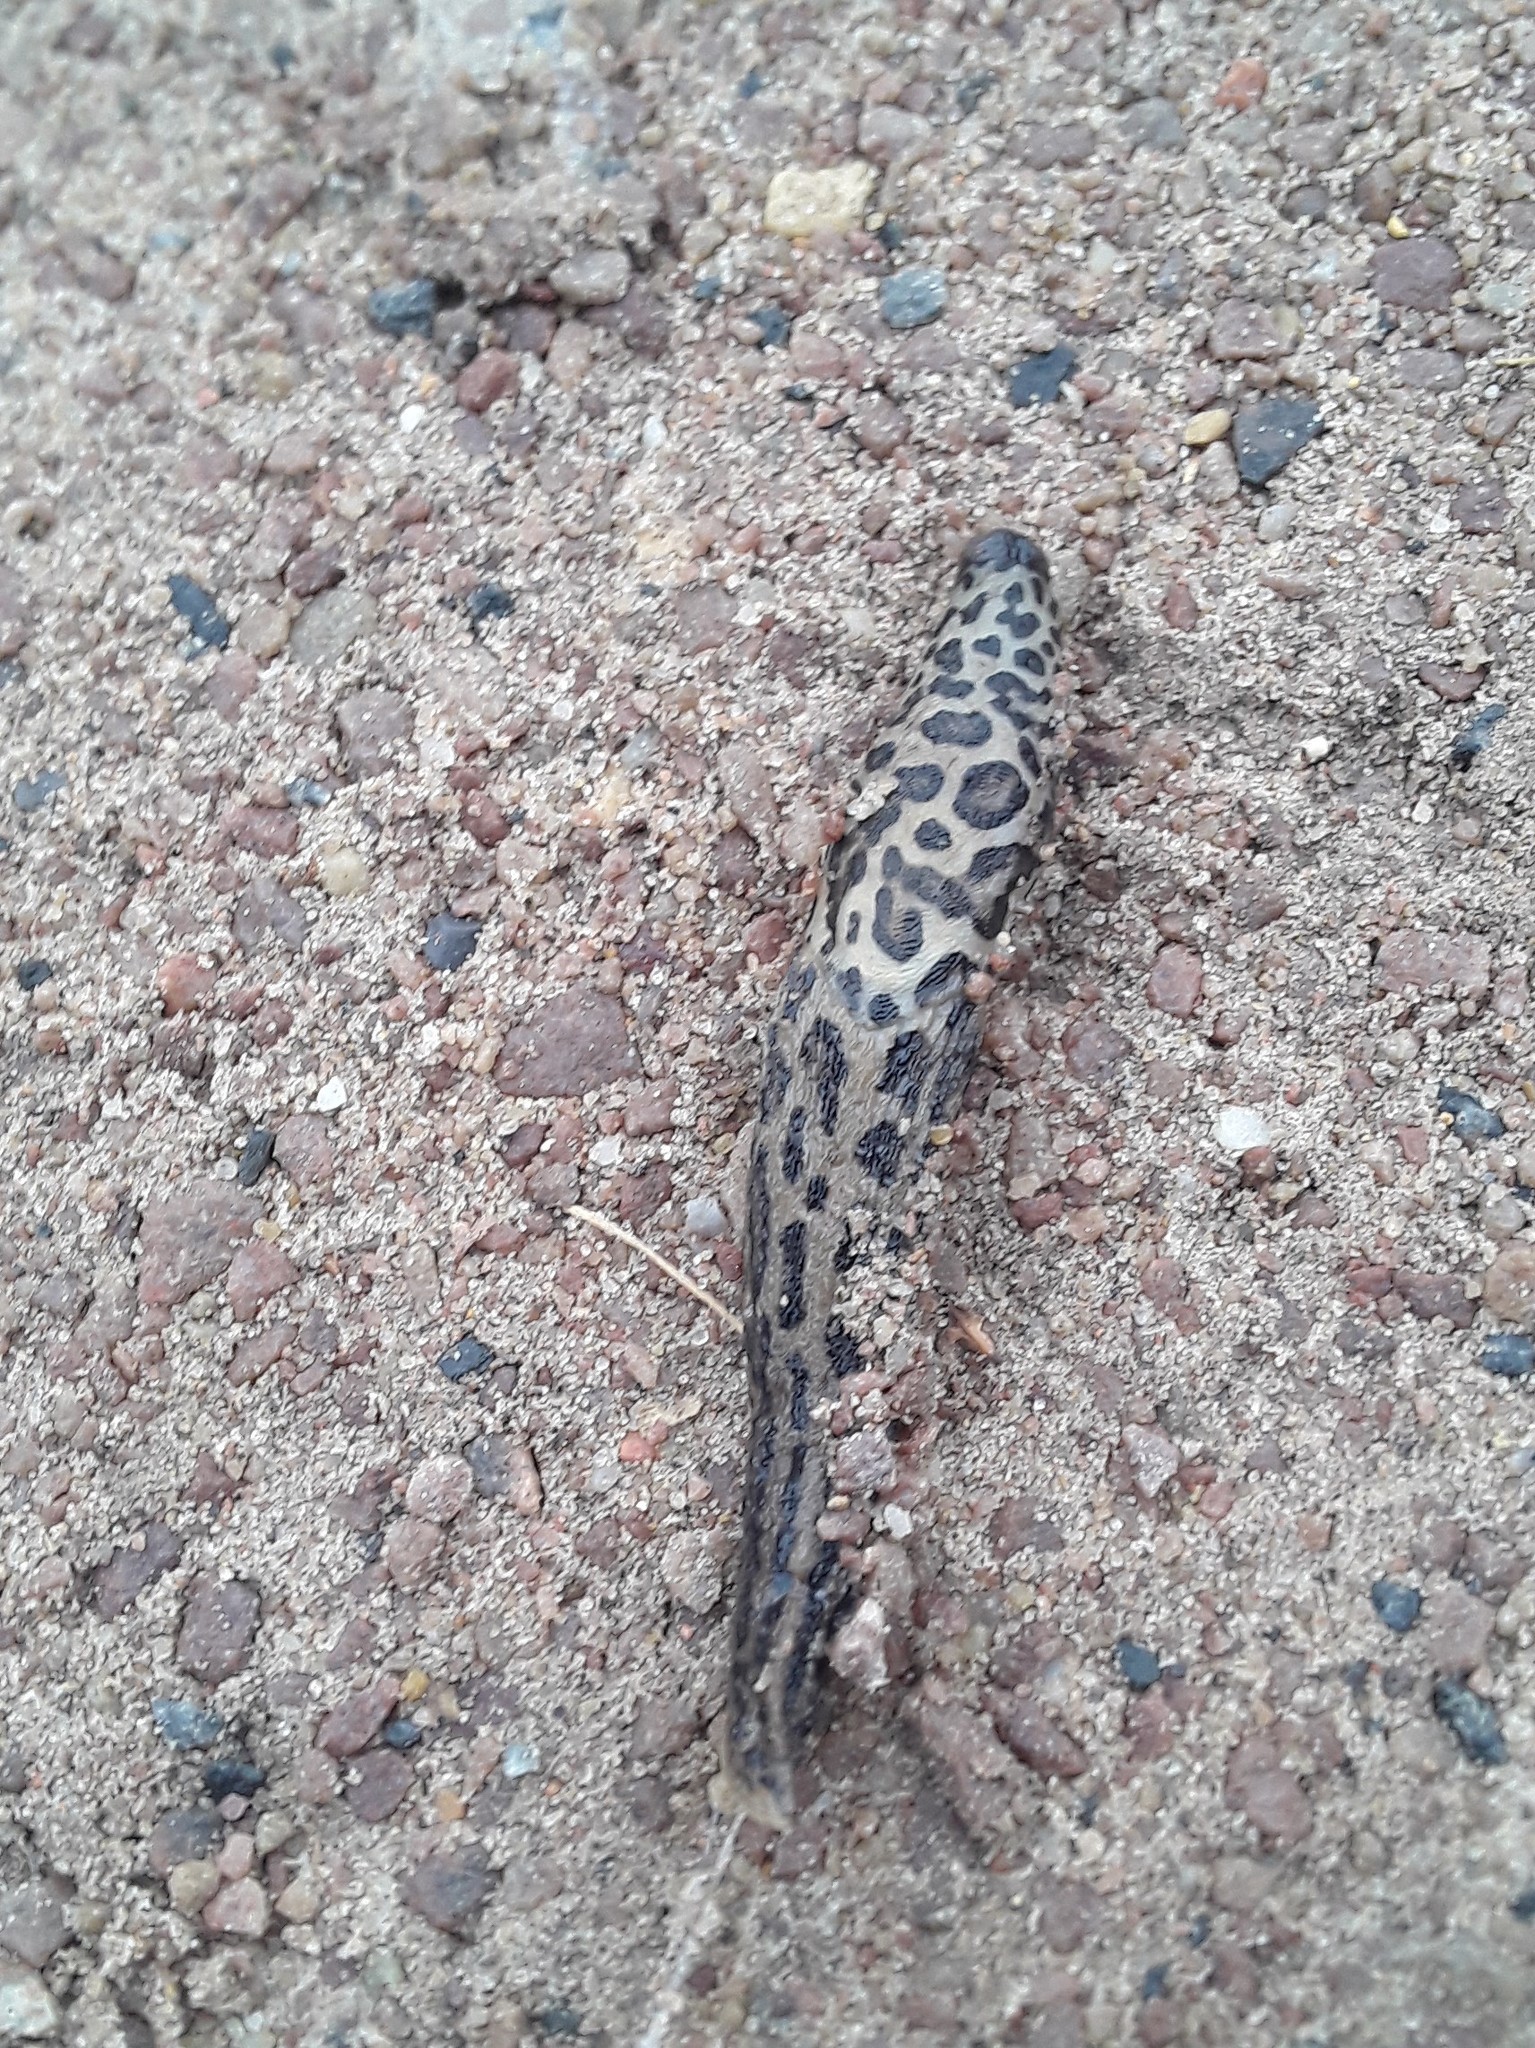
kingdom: Animalia
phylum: Mollusca
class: Gastropoda
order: Stylommatophora
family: Limacidae
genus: Limax
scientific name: Limax maximus
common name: Great grey slug
